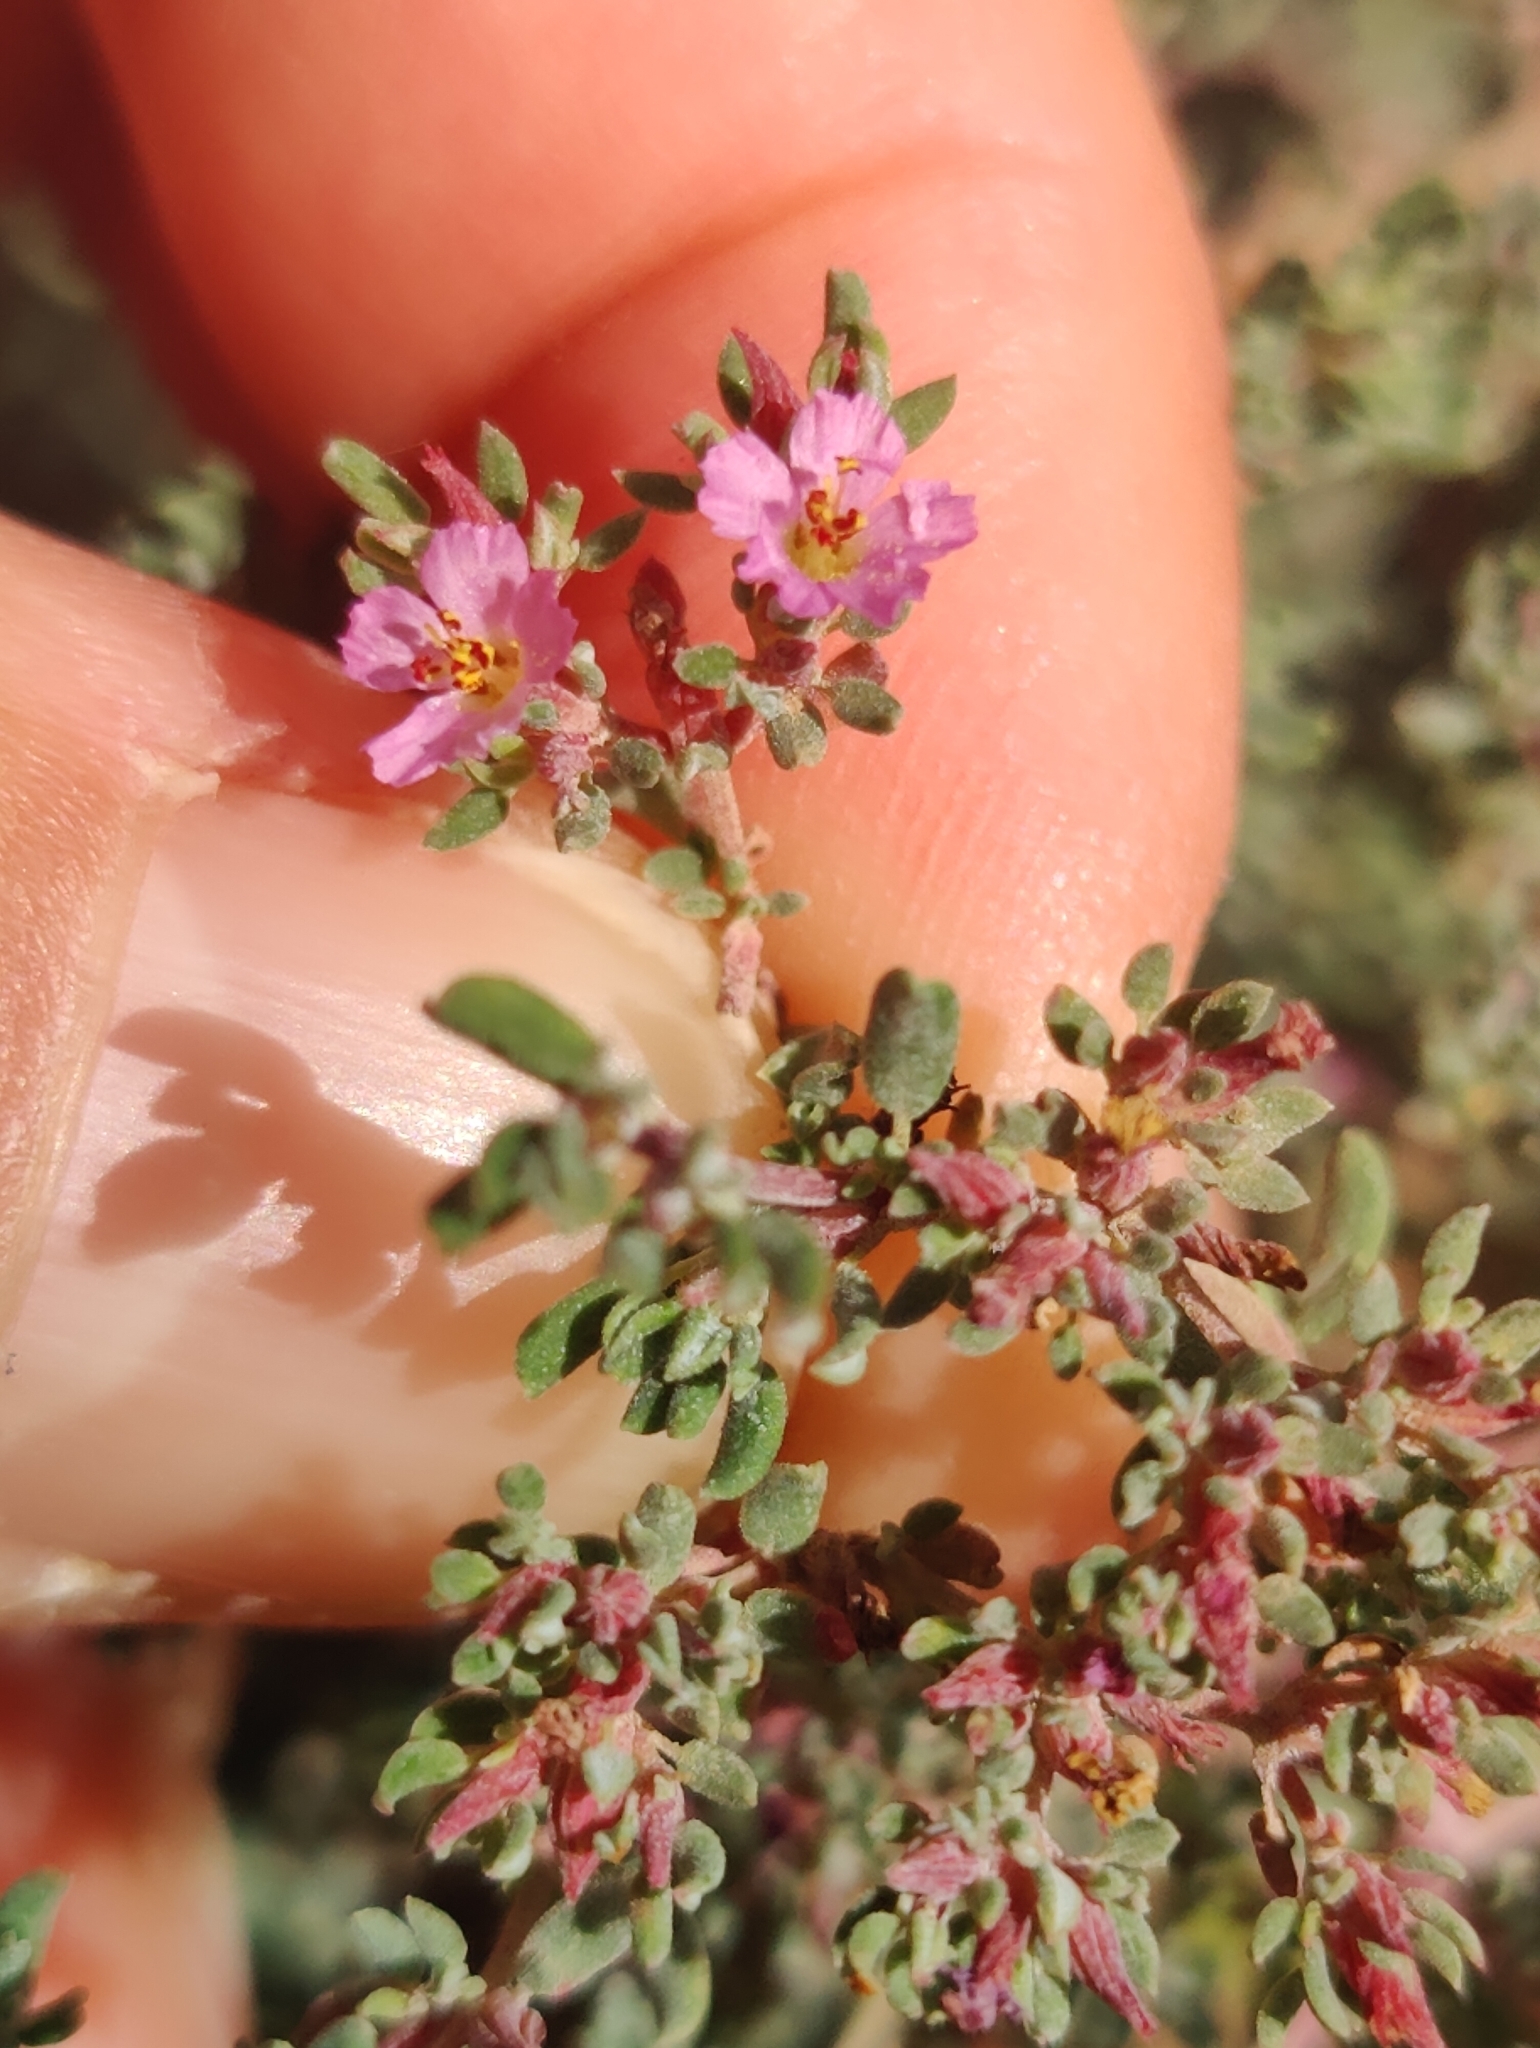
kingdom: Plantae
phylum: Tracheophyta
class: Magnoliopsida
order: Caryophyllales
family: Frankeniaceae
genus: Frankenia
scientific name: Frankenia pulverulenta
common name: European seaheath
